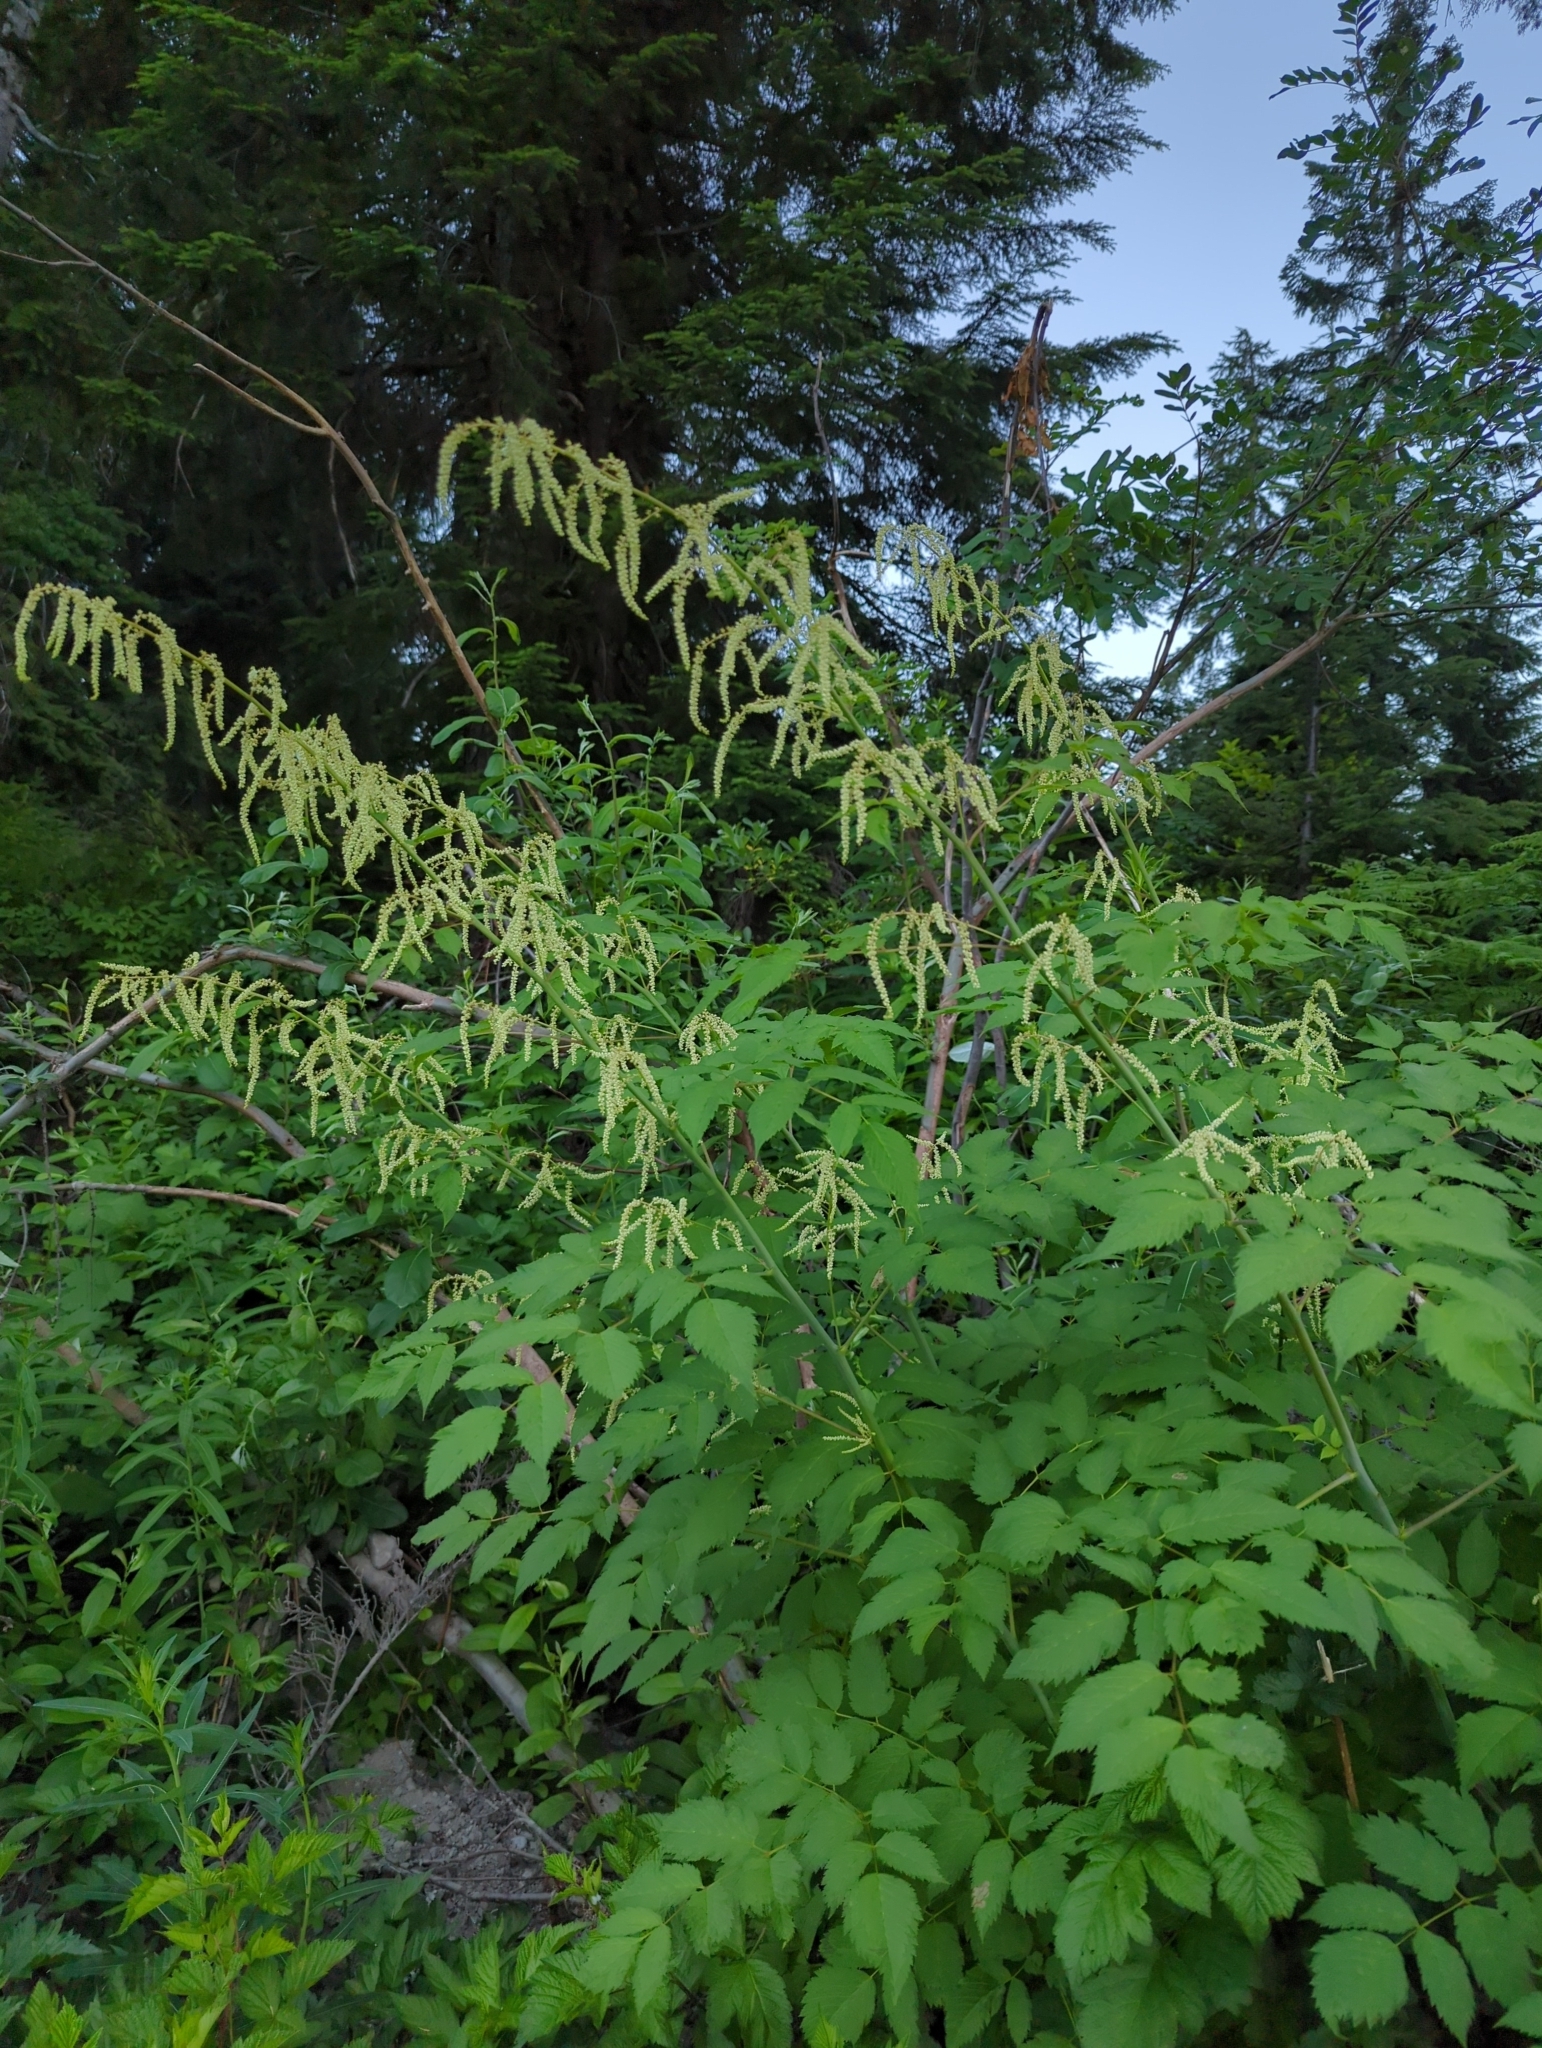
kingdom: Plantae
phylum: Tracheophyta
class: Magnoliopsida
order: Rosales
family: Rosaceae
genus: Aruncus
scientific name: Aruncus dioicus
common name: Buck's-beard
